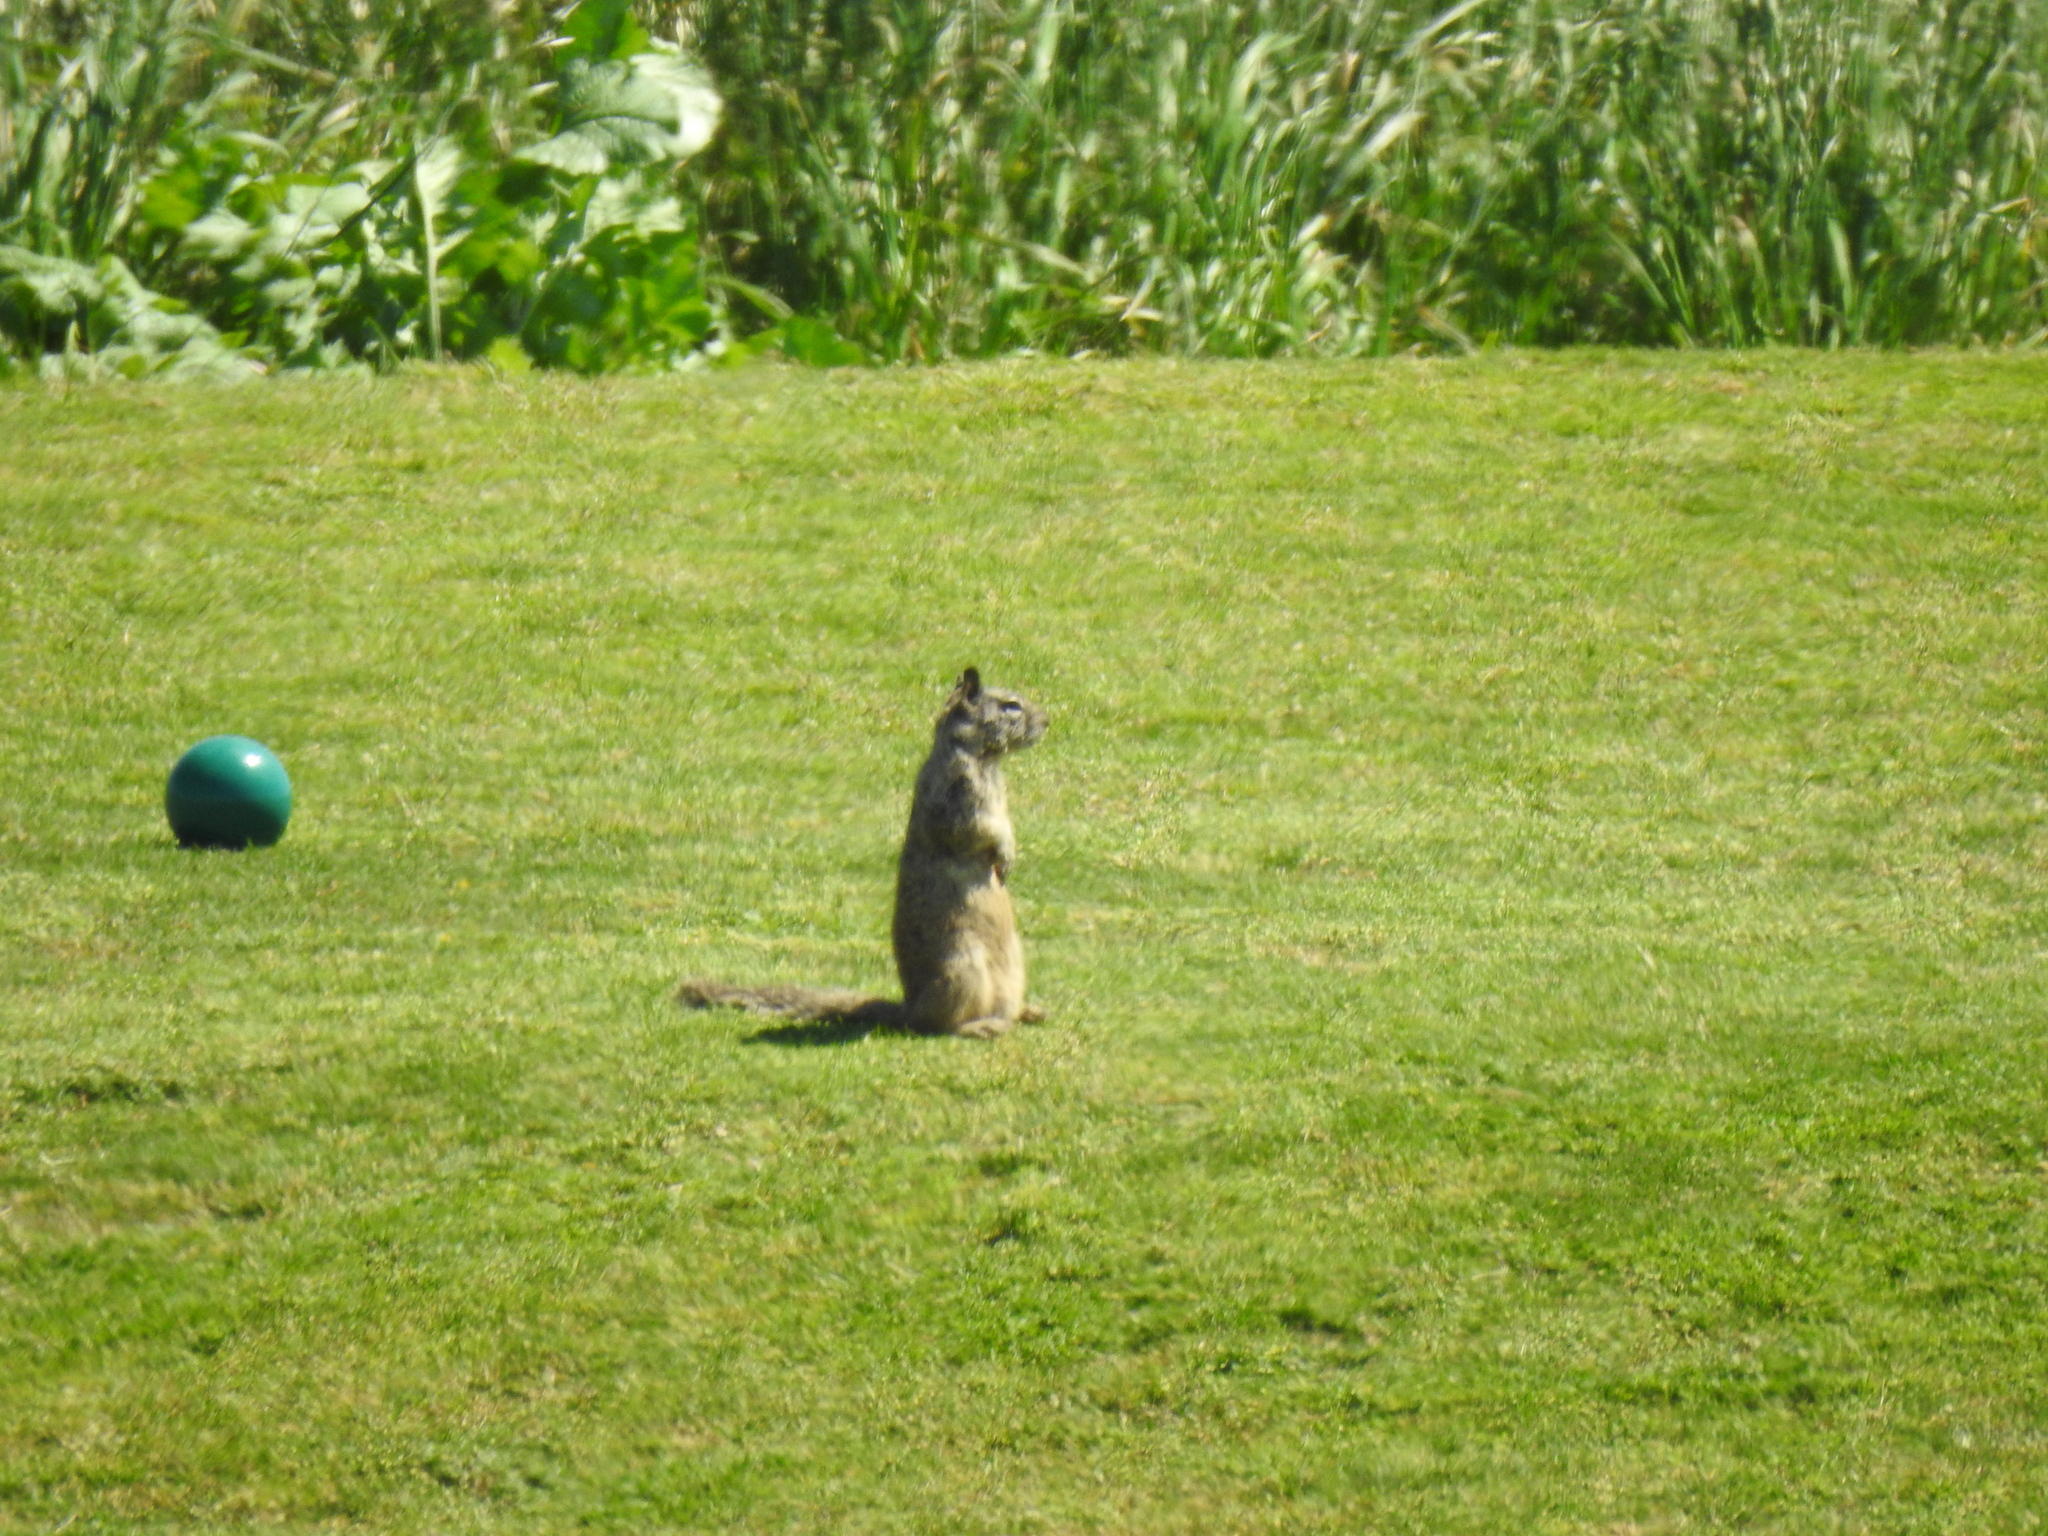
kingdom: Animalia
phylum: Chordata
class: Mammalia
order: Rodentia
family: Sciuridae
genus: Otospermophilus
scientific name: Otospermophilus beecheyi
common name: California ground squirrel
